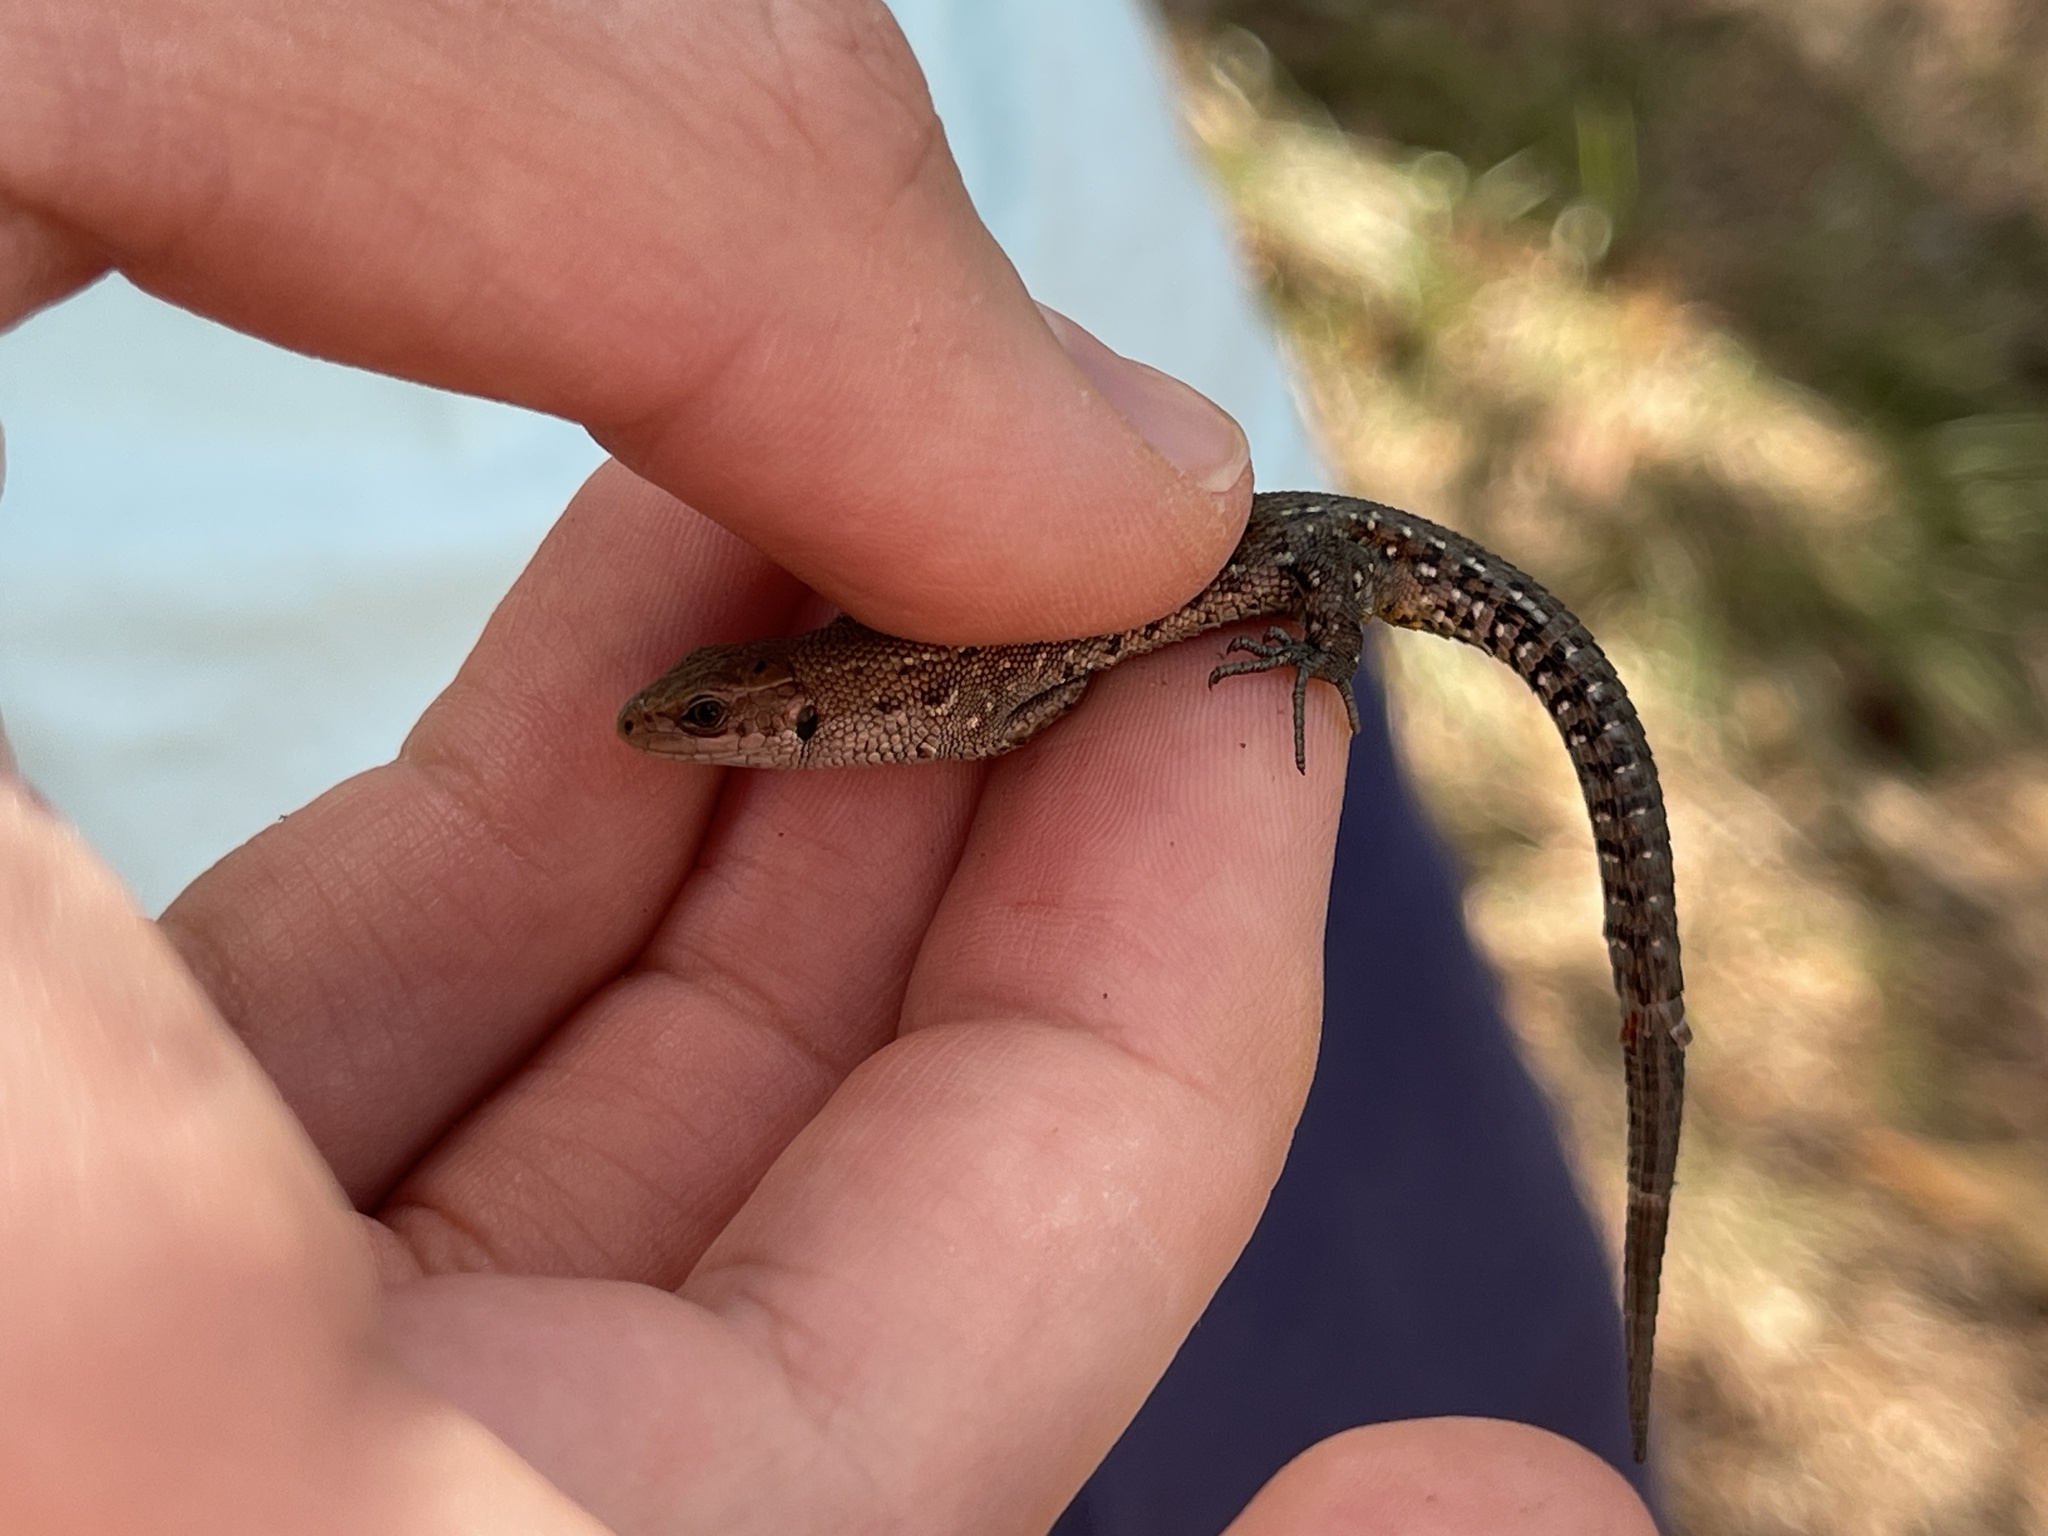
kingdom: Animalia
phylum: Chordata
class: Squamata
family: Lacertidae
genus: Zootoca
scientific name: Zootoca vivipara
